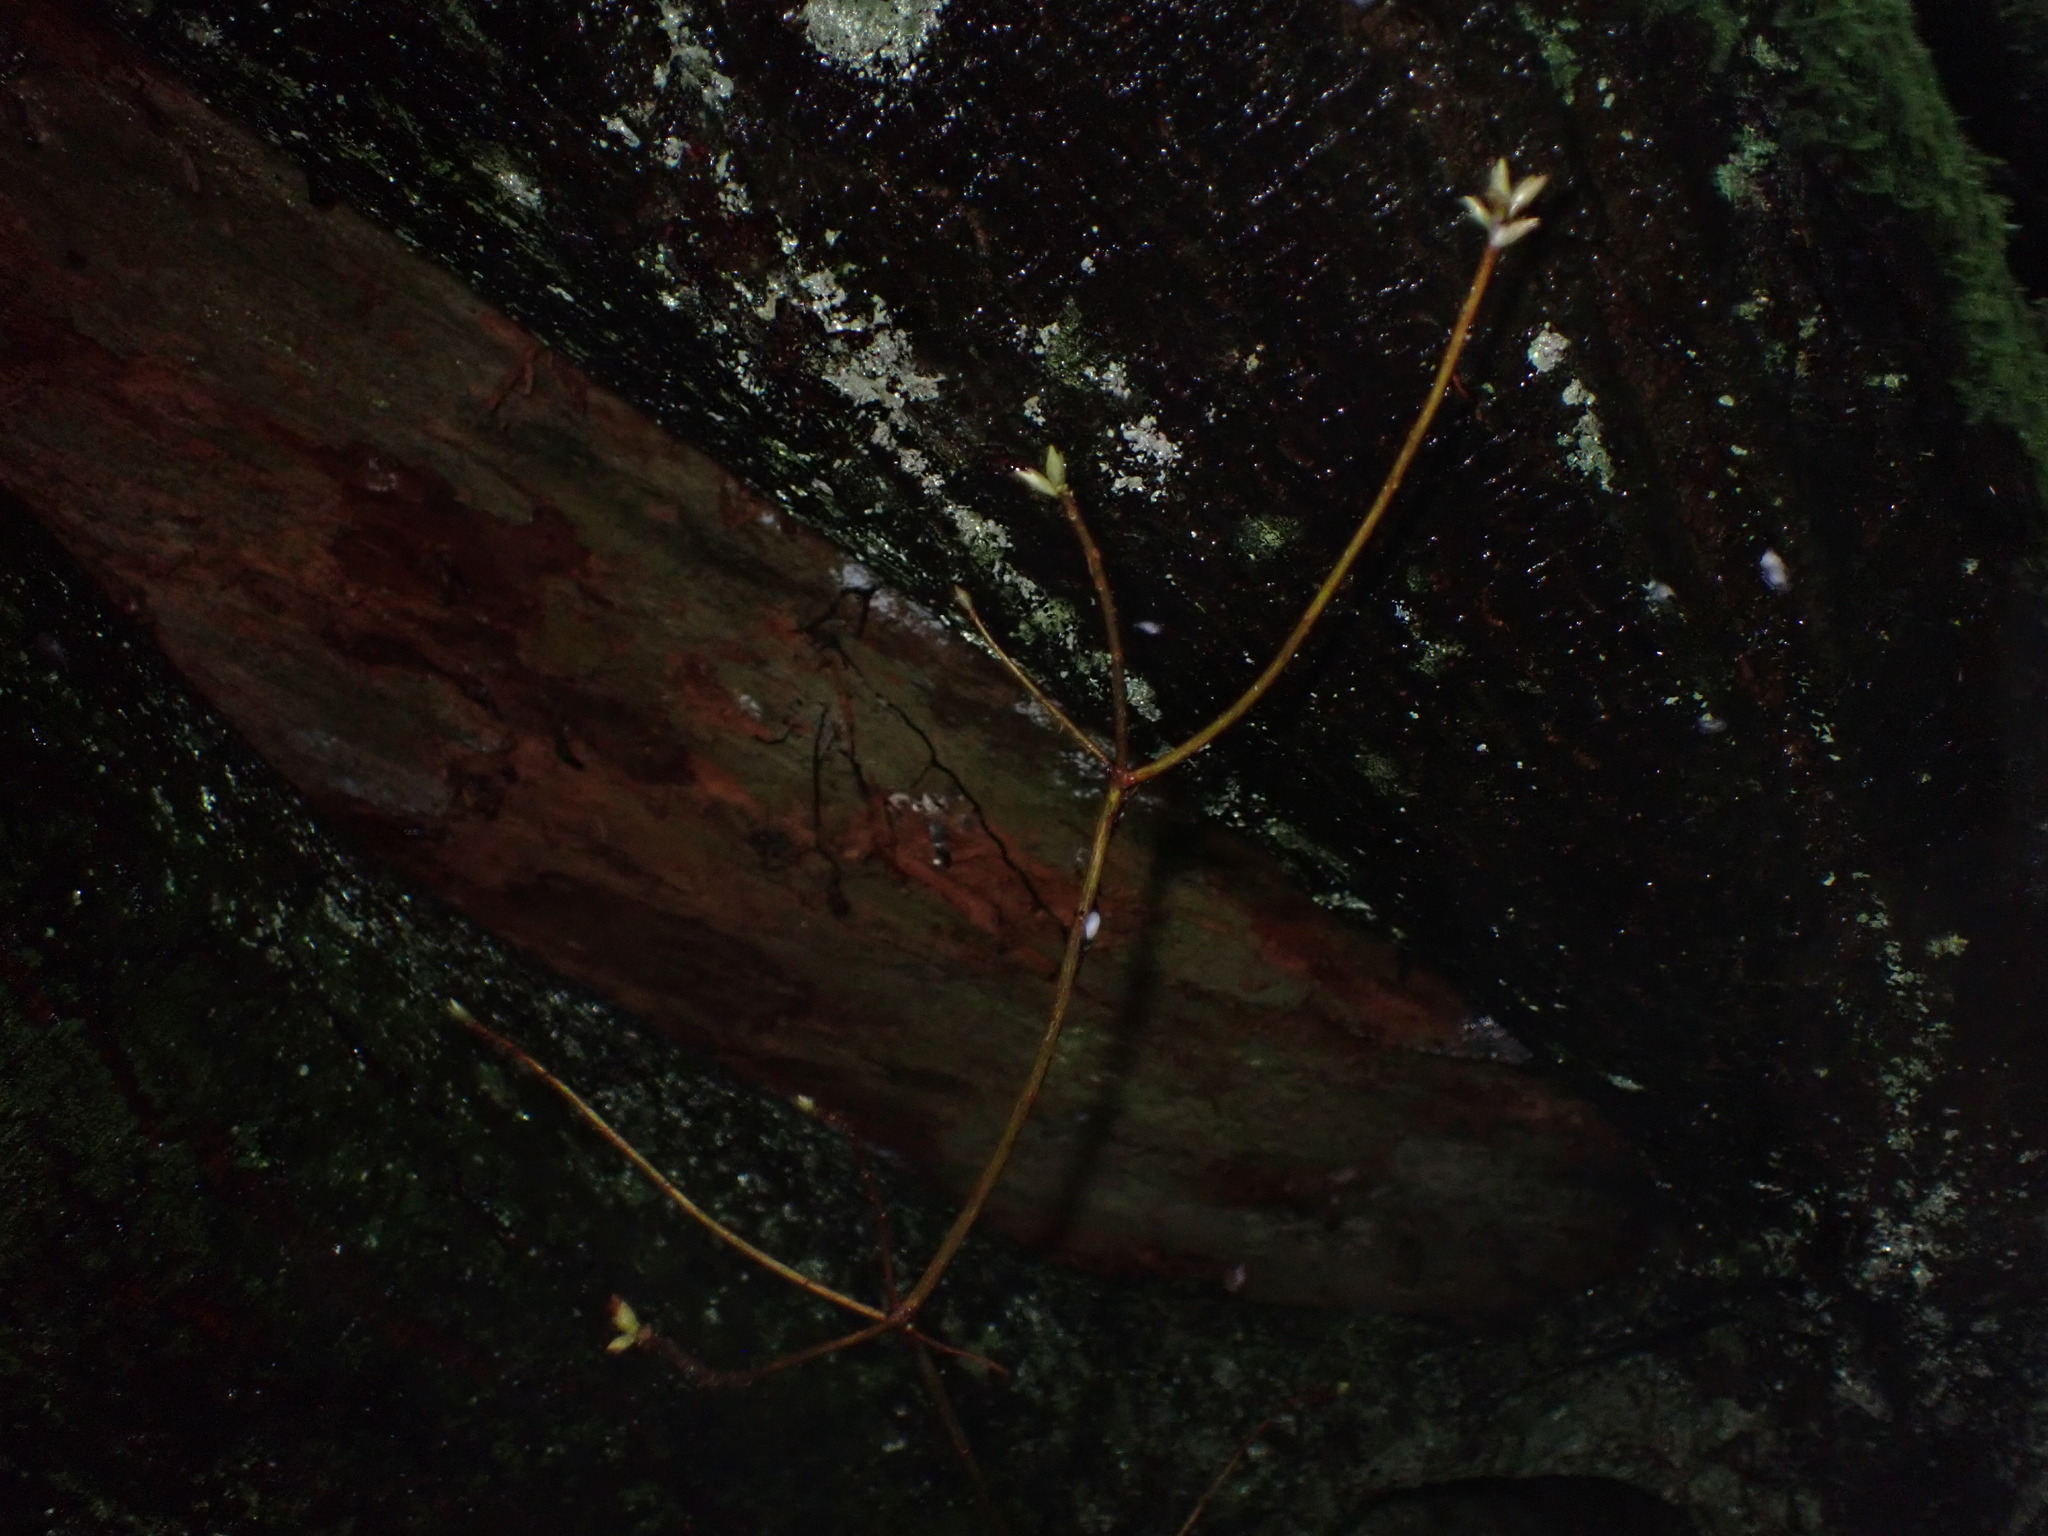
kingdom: Plantae
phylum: Tracheophyta
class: Magnoliopsida
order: Ericales
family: Ericaceae
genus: Rhododendron
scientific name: Rhododendron menziesii
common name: Pacific menziesia
